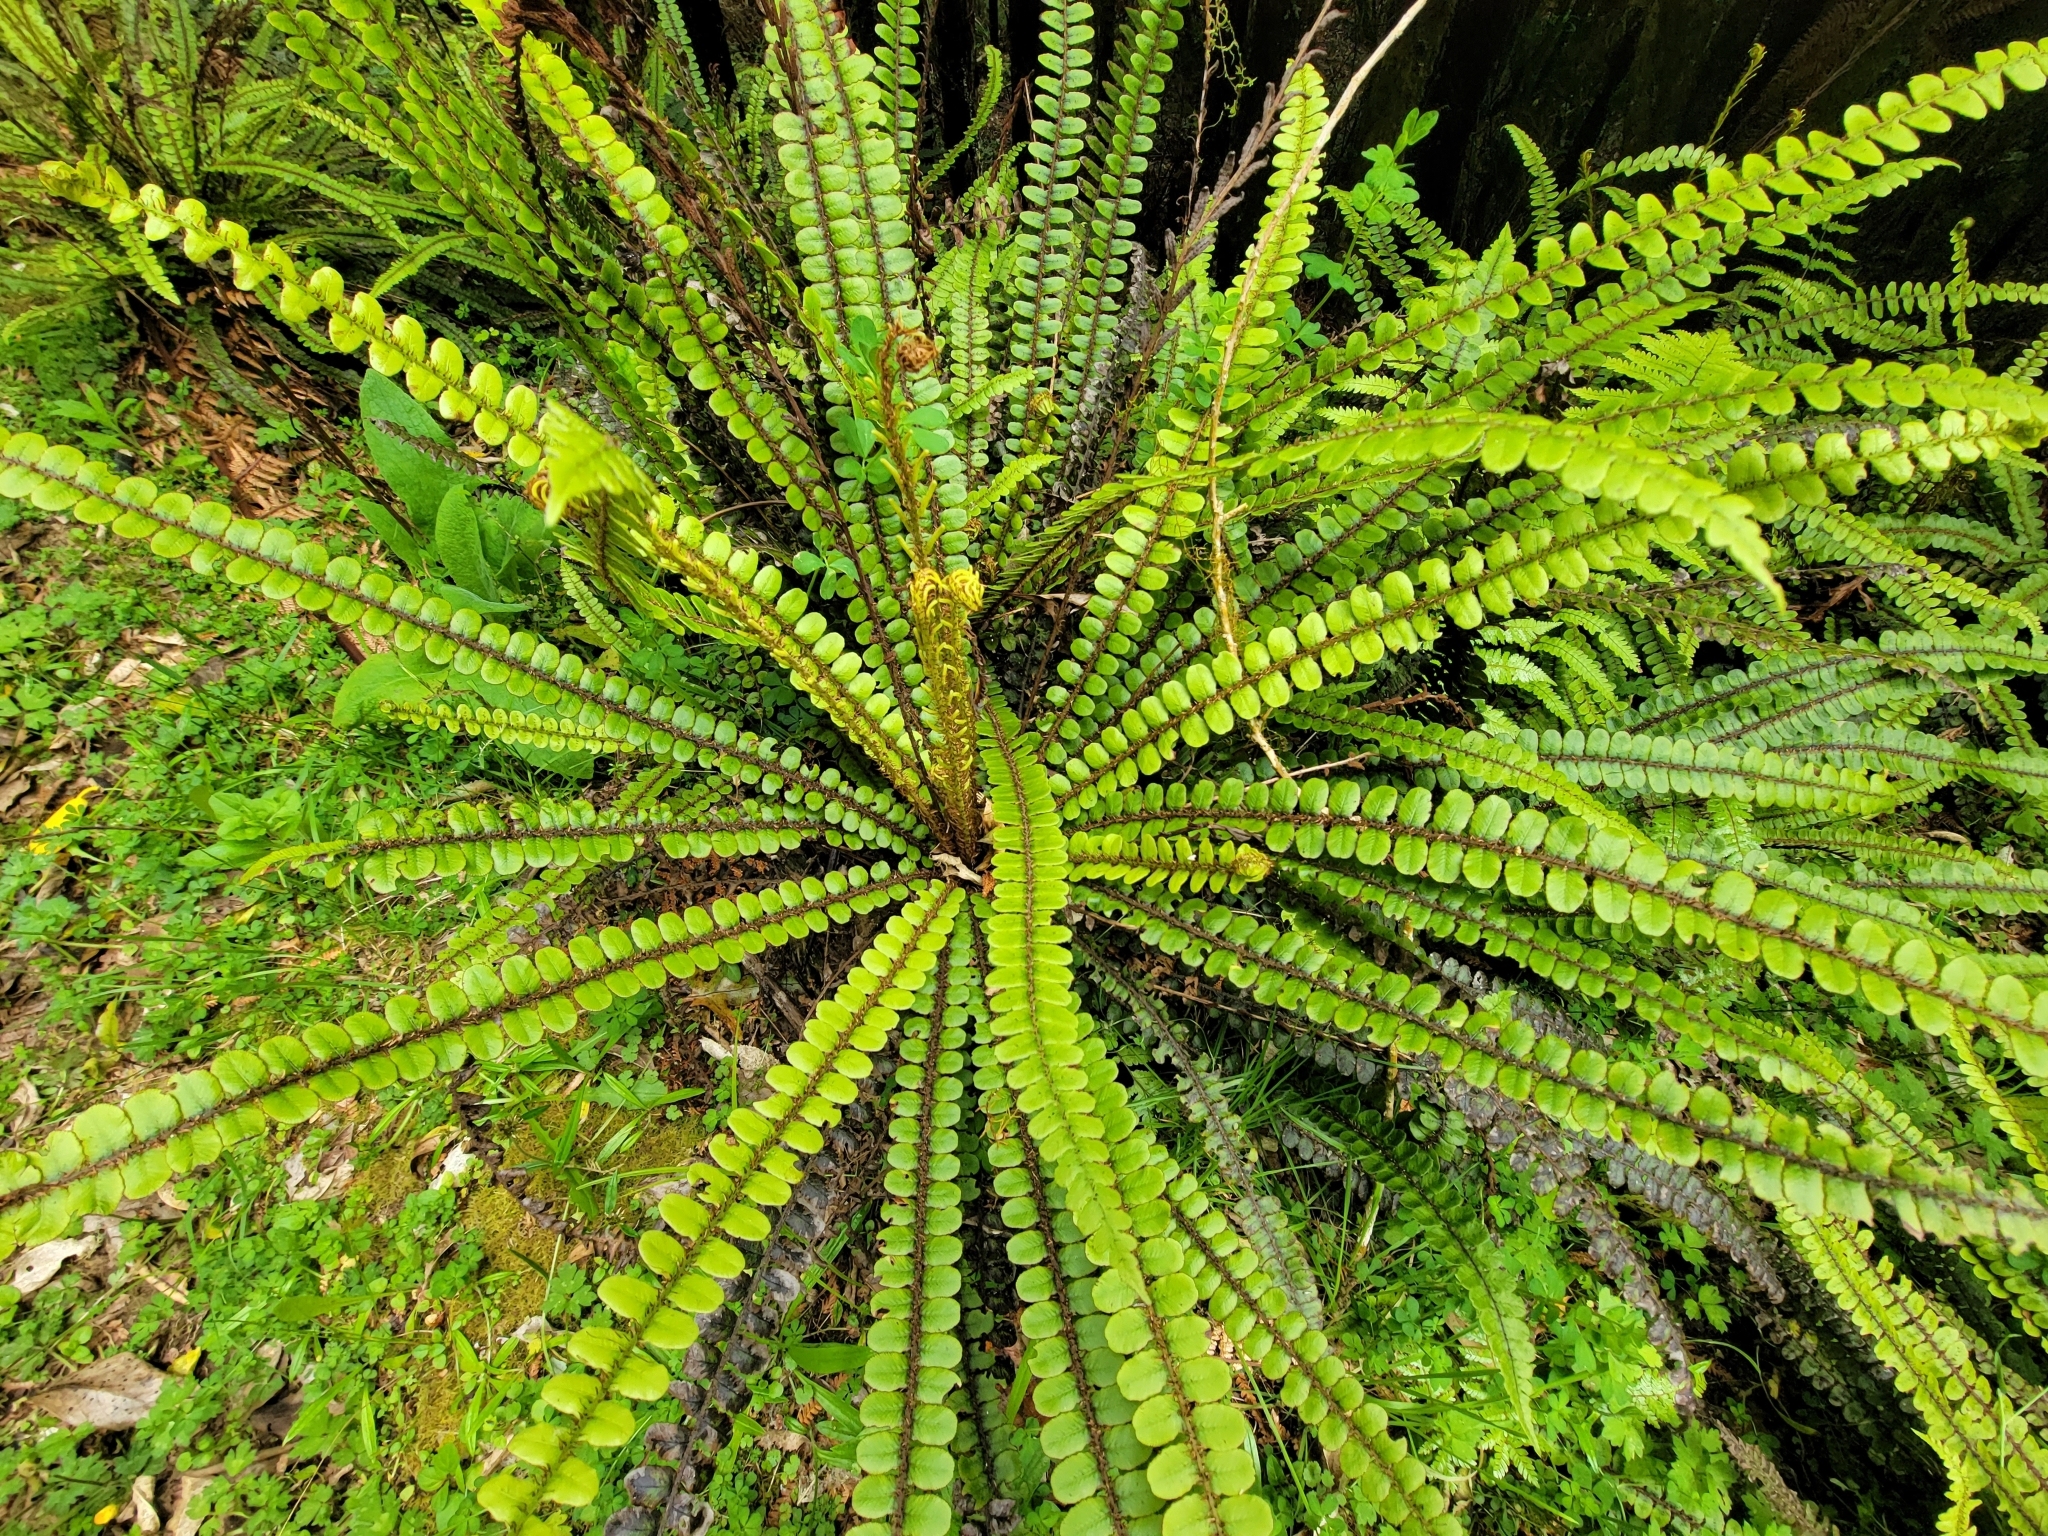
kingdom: Plantae
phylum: Tracheophyta
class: Polypodiopsida
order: Polypodiales
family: Blechnaceae
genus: Cranfillia
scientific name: Cranfillia fluviatilis
